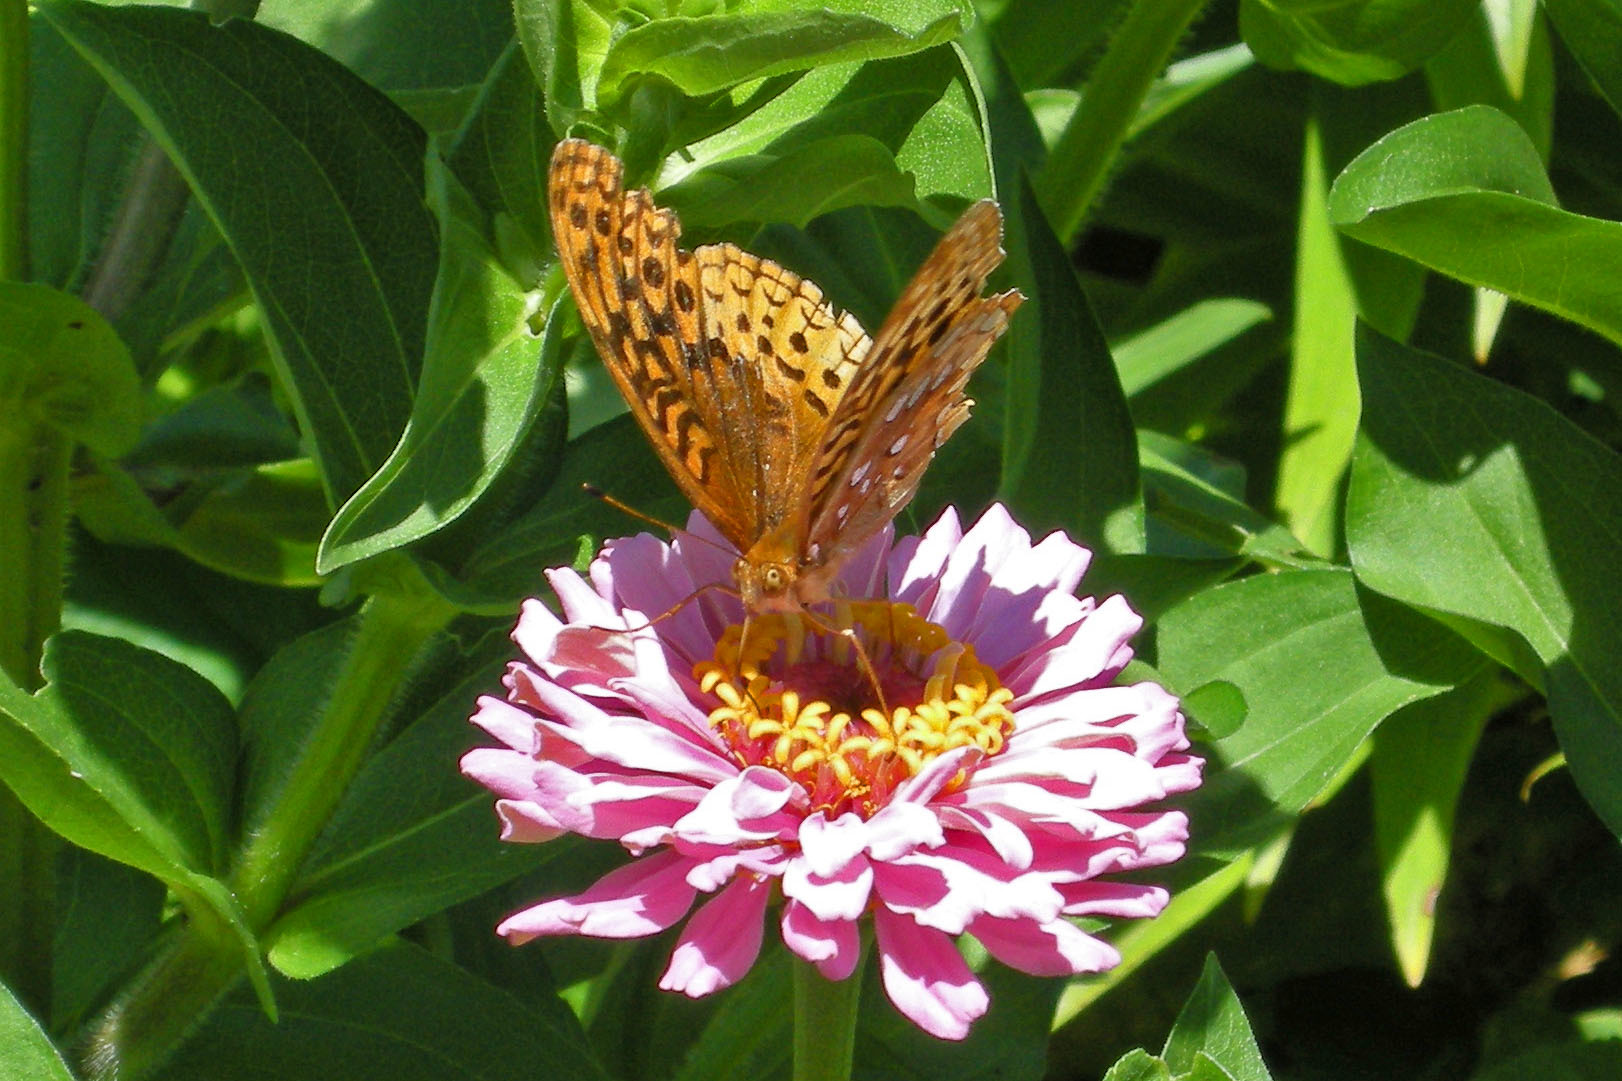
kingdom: Animalia
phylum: Arthropoda
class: Insecta
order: Lepidoptera
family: Nymphalidae
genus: Speyeria
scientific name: Speyeria cybele
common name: Great spangled fritillary
